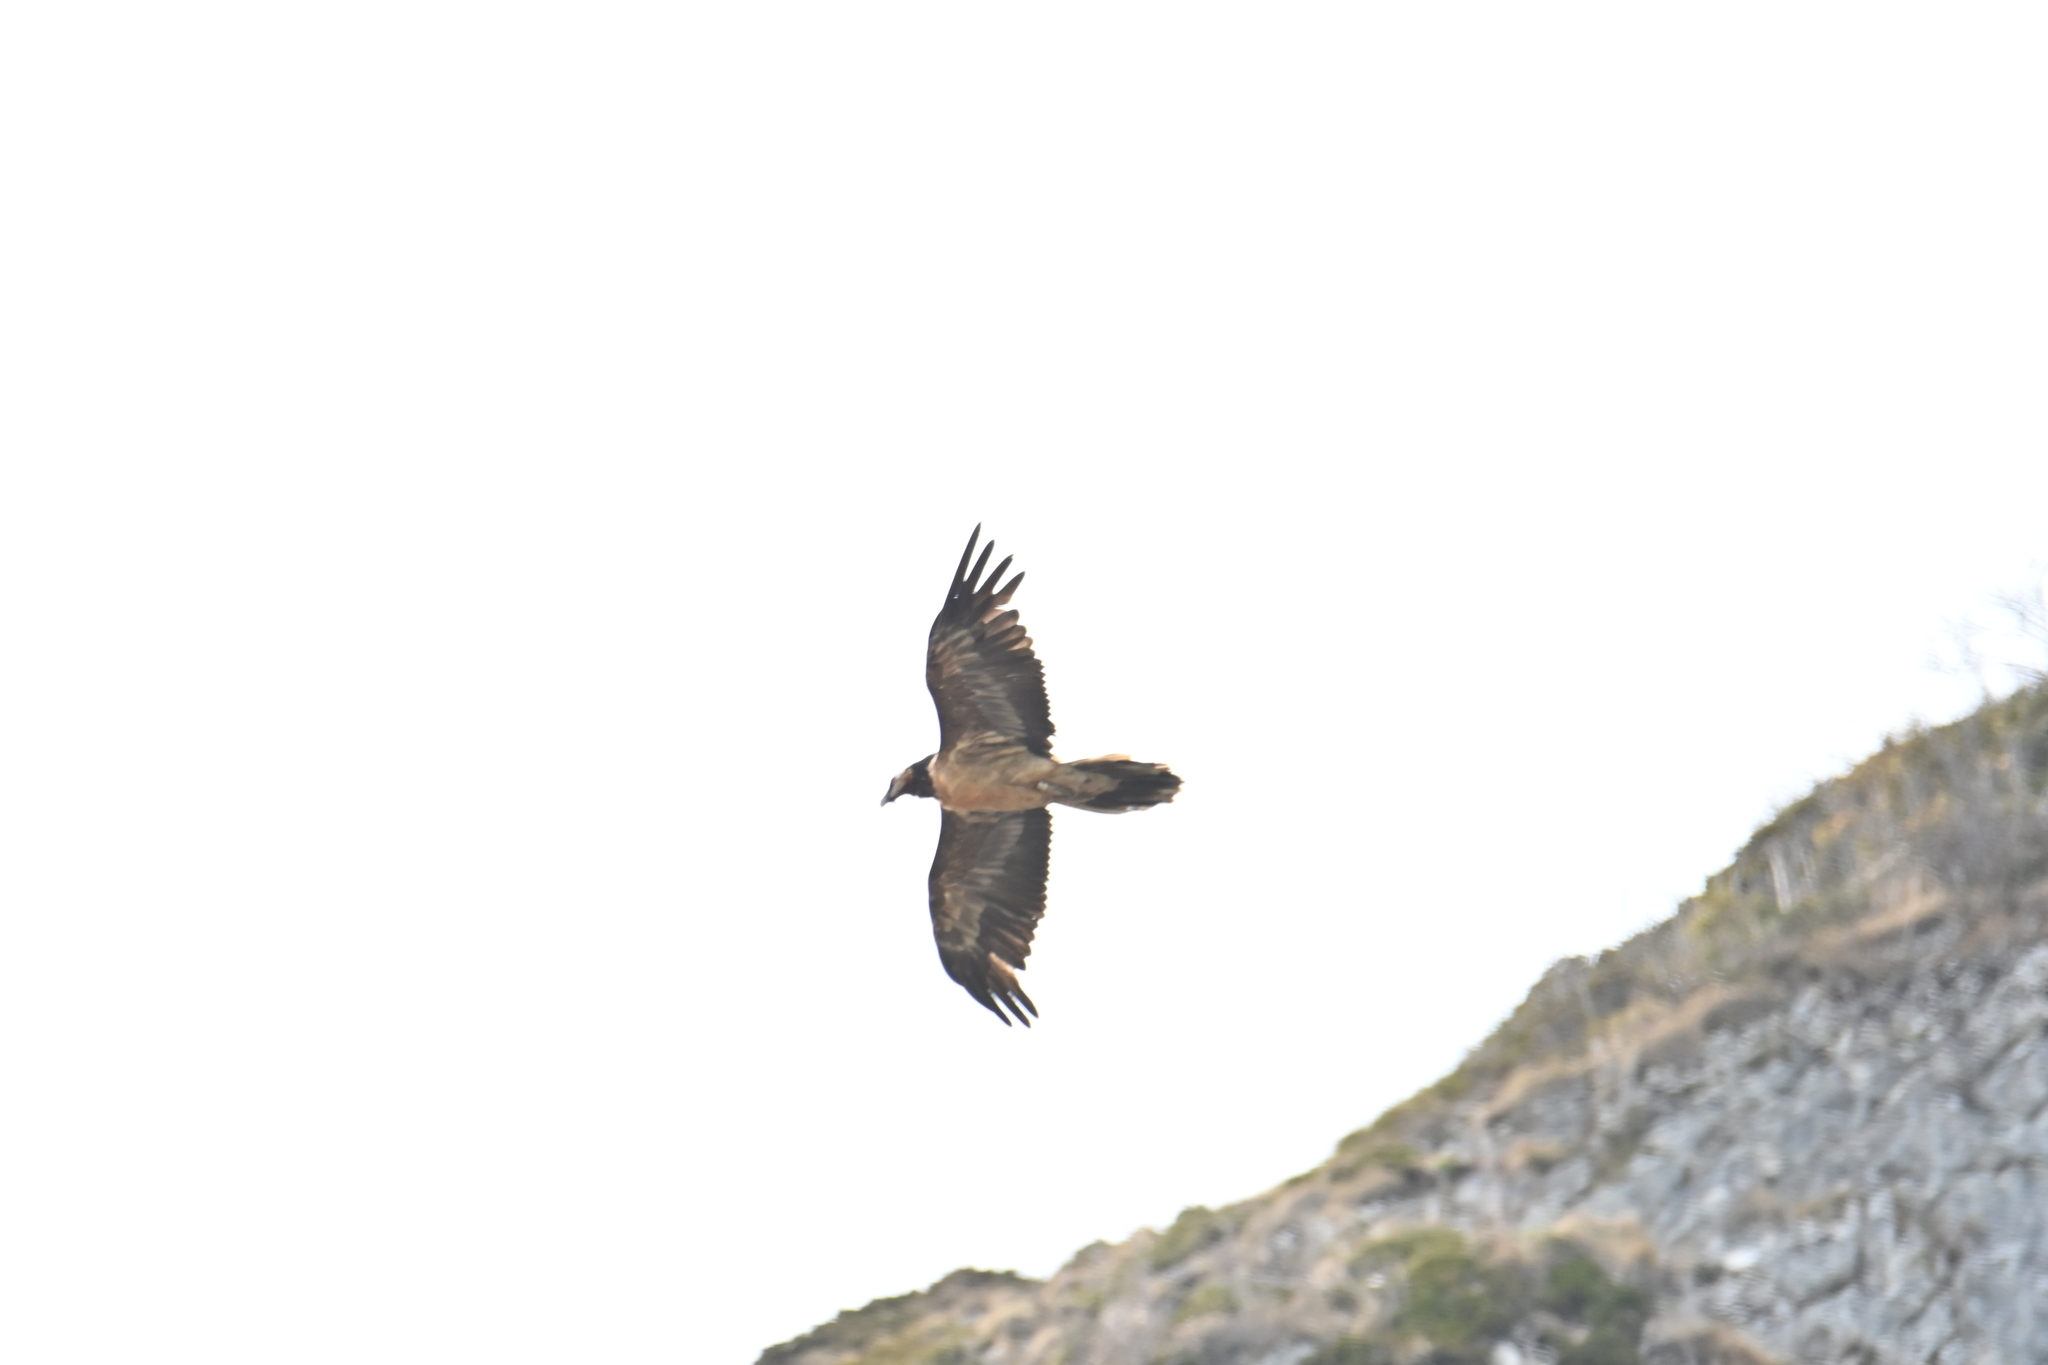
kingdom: Animalia
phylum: Chordata
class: Aves
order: Accipitriformes
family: Accipitridae
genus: Gypaetus
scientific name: Gypaetus barbatus
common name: Bearded vulture
